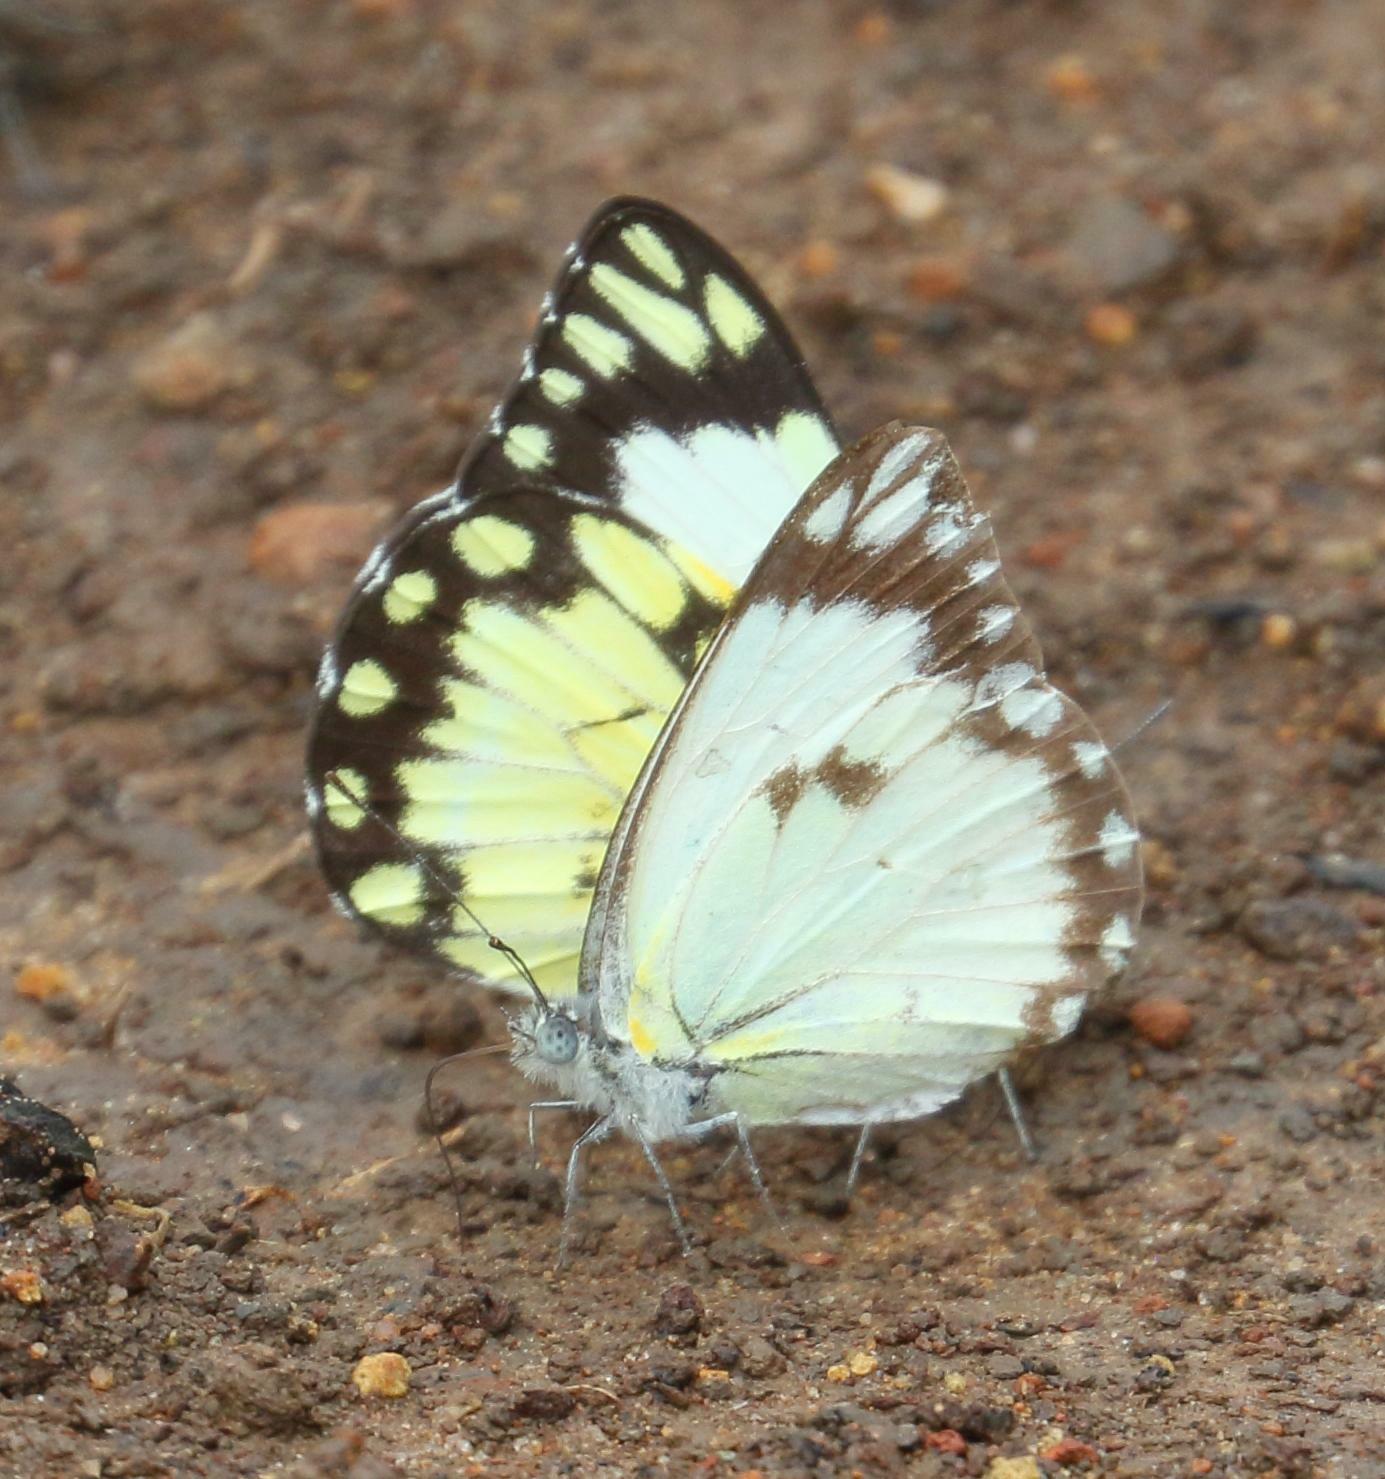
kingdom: Animalia
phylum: Arthropoda
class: Insecta
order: Lepidoptera
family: Pieridae
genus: Belenois
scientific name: Belenois creona
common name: African caper white
